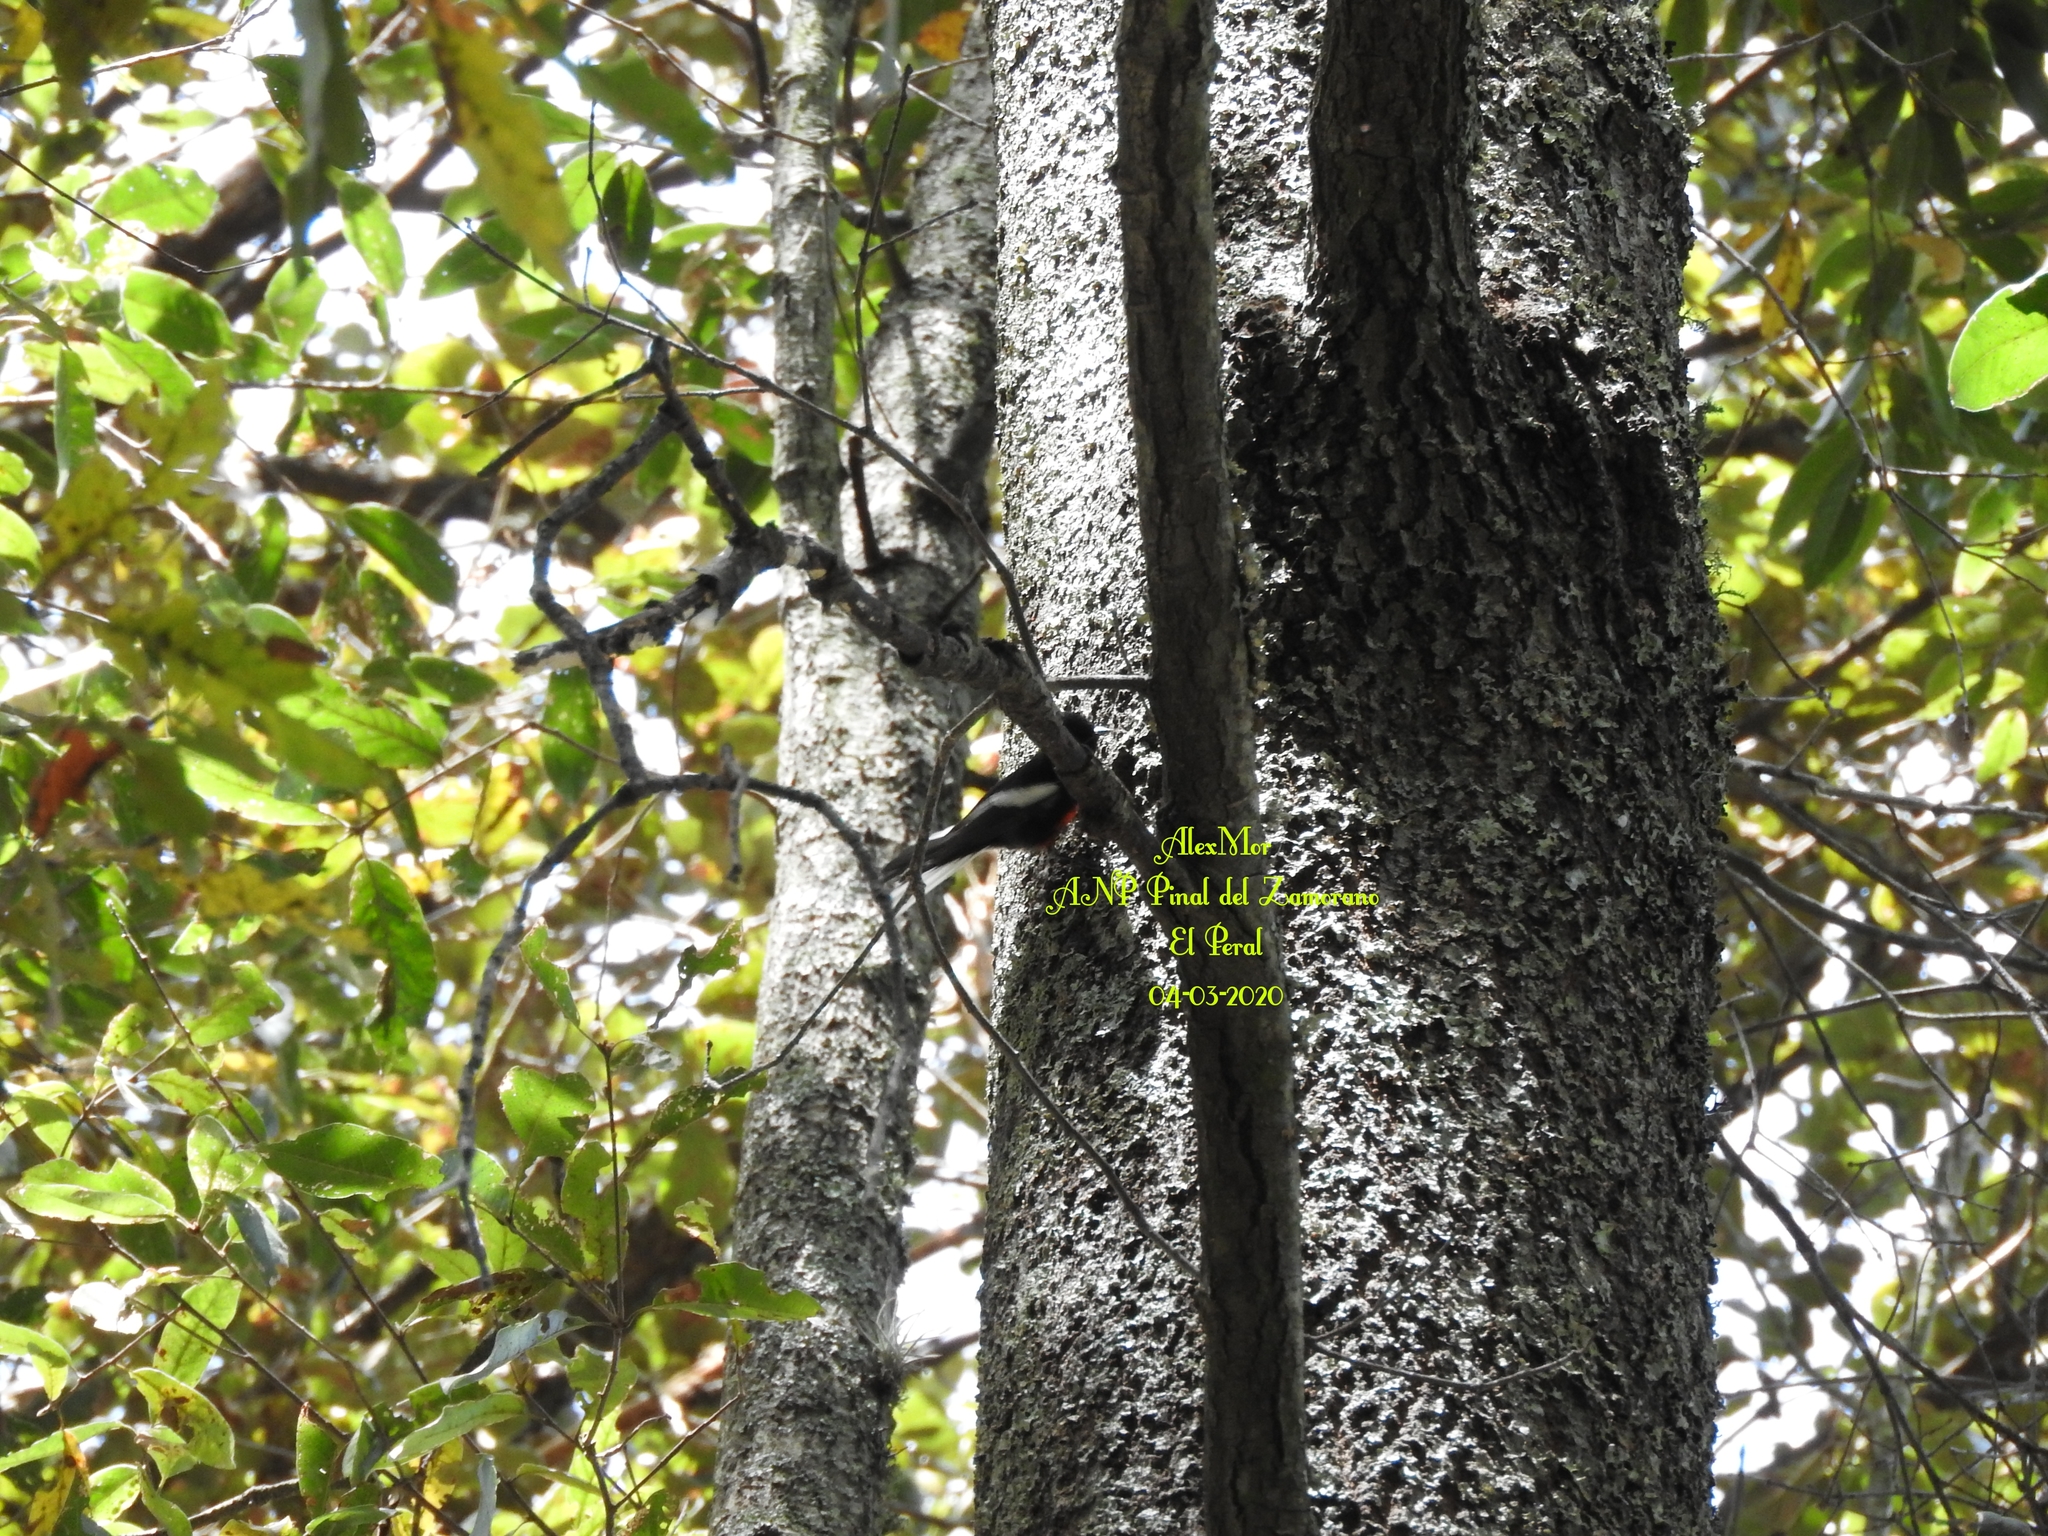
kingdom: Animalia
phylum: Chordata
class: Aves
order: Passeriformes
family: Parulidae
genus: Myioborus
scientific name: Myioborus pictus
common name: Painted whitestart
